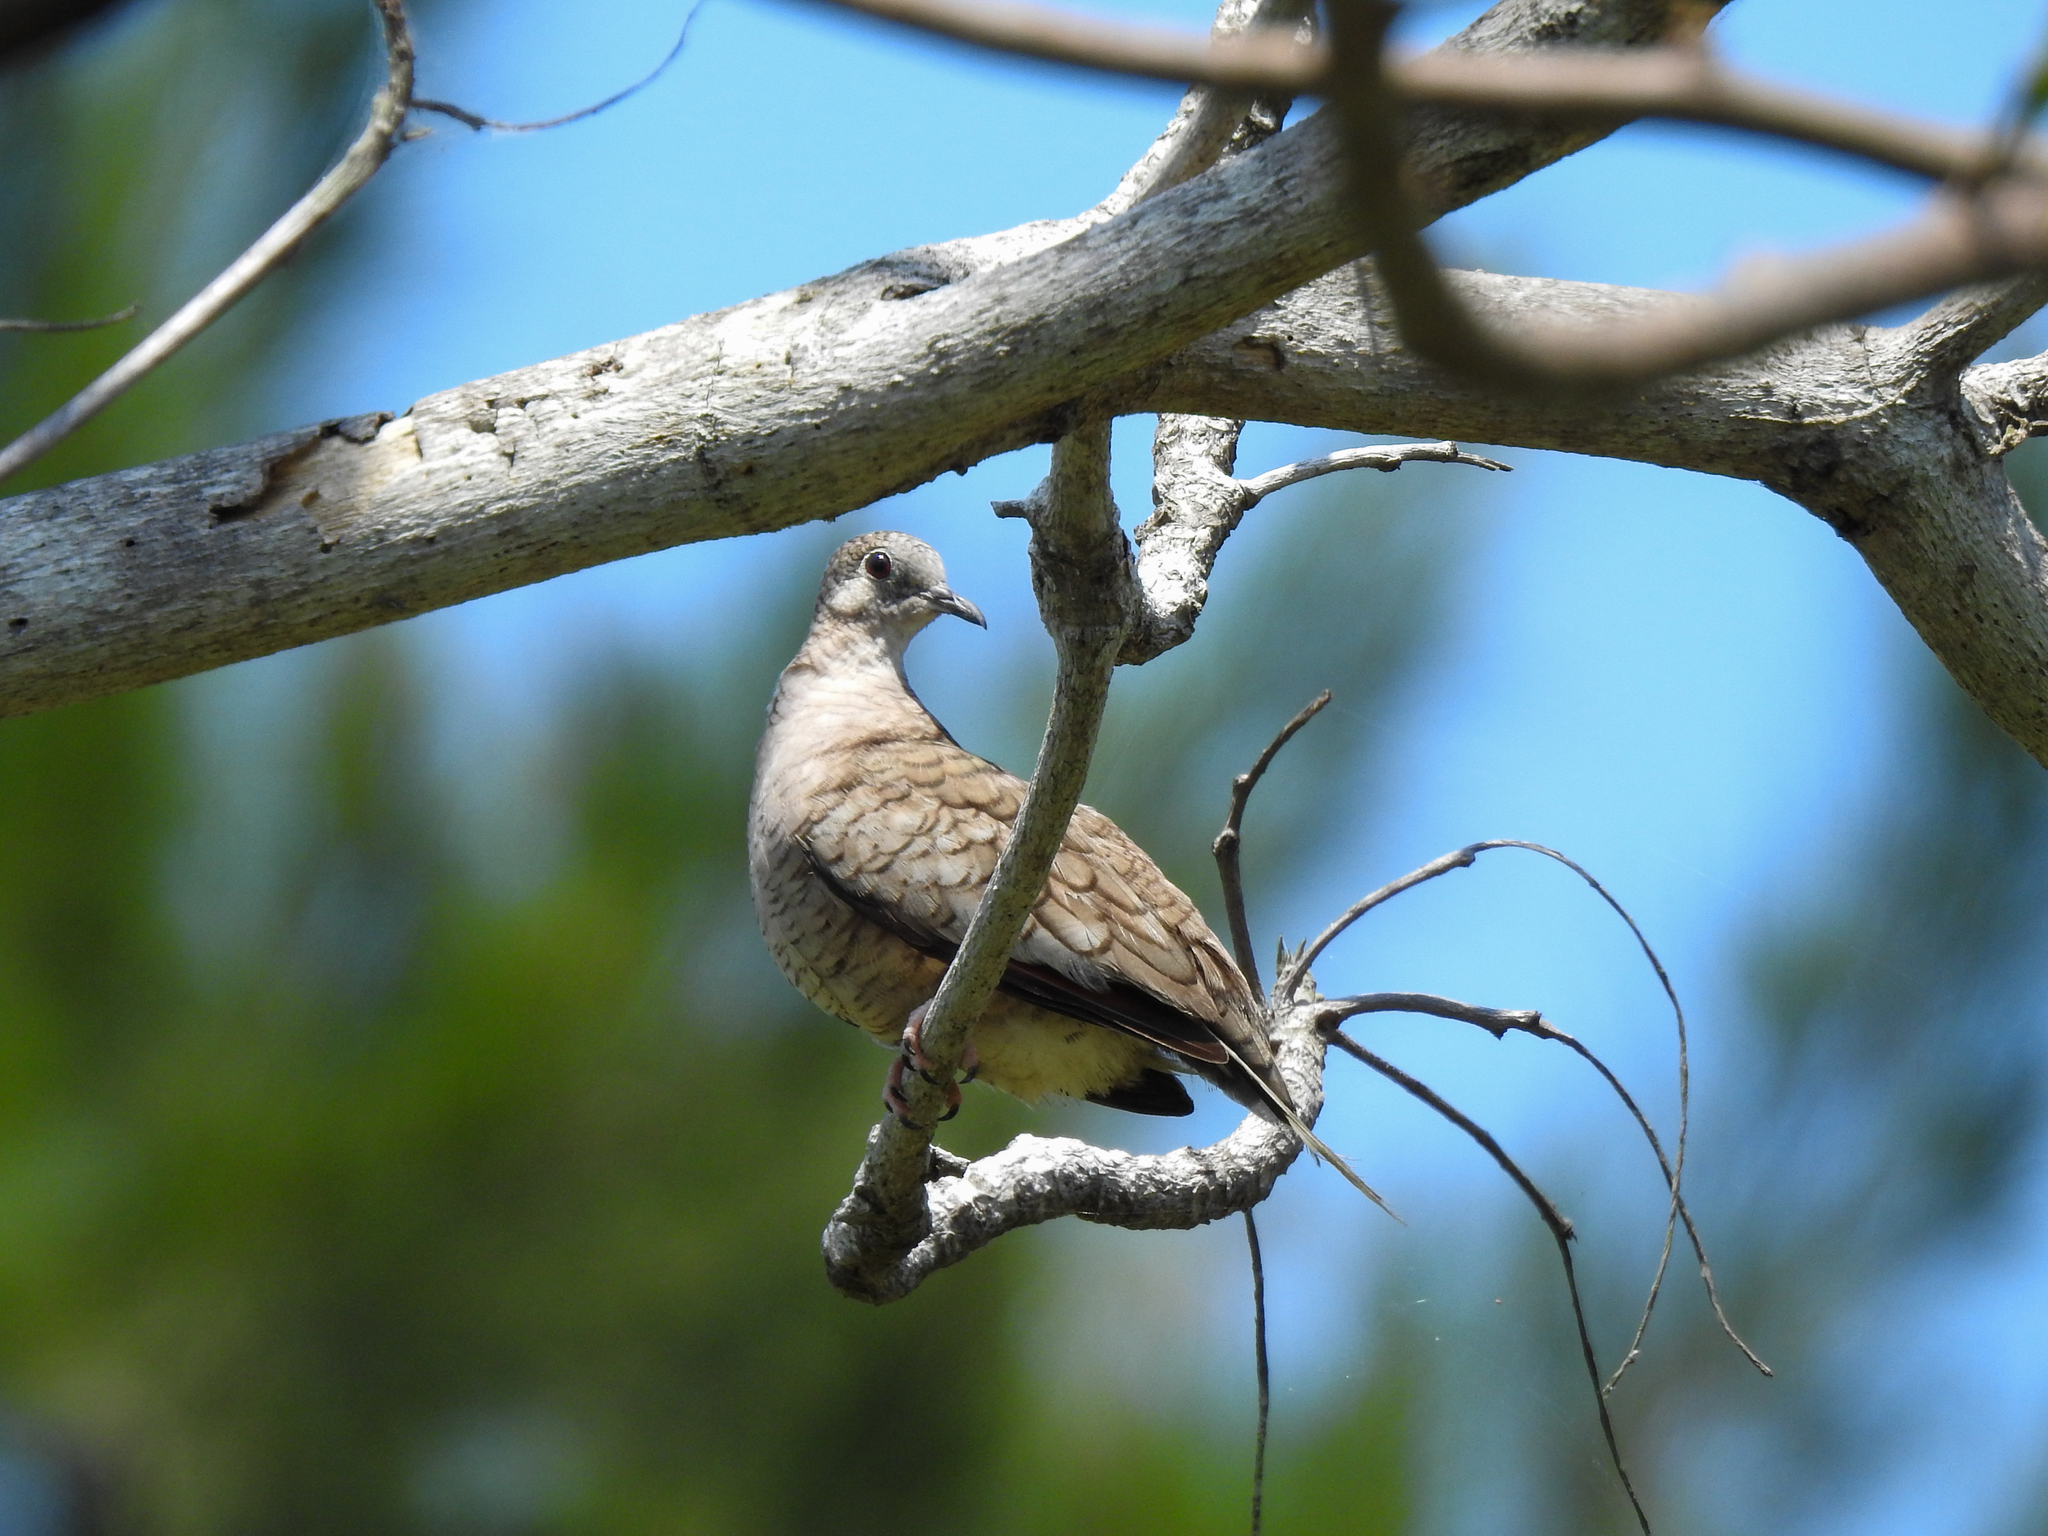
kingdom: Animalia
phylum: Chordata
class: Aves
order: Columbiformes
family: Columbidae
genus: Columbina
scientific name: Columbina inca
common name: Inca dove
